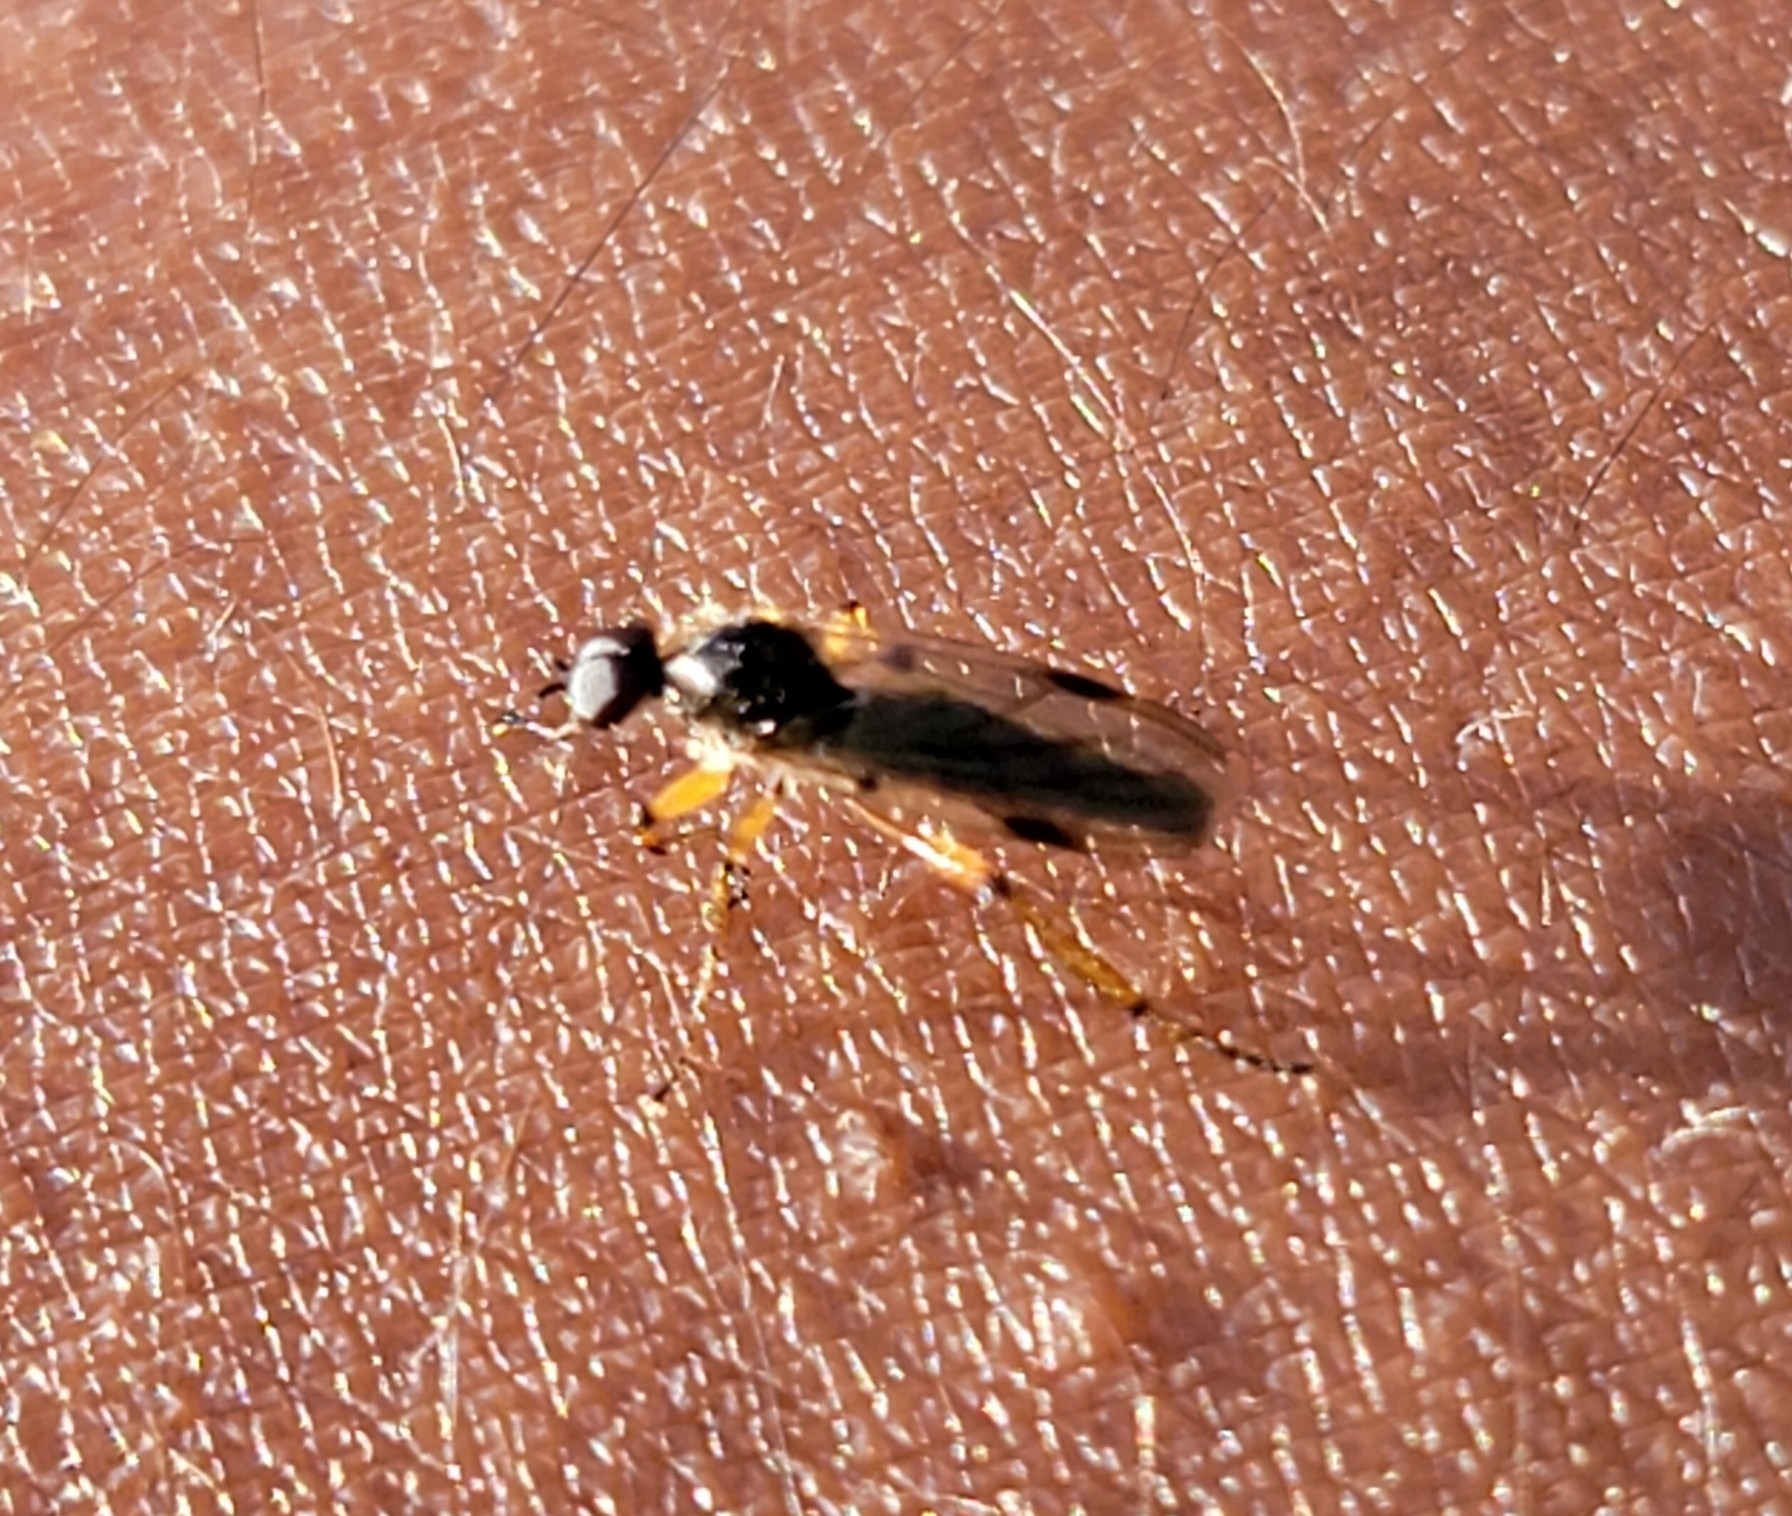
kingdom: Animalia
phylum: Arthropoda
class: Insecta
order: Diptera
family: Bibionidae
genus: Bibio
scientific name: Bibio articulatus
